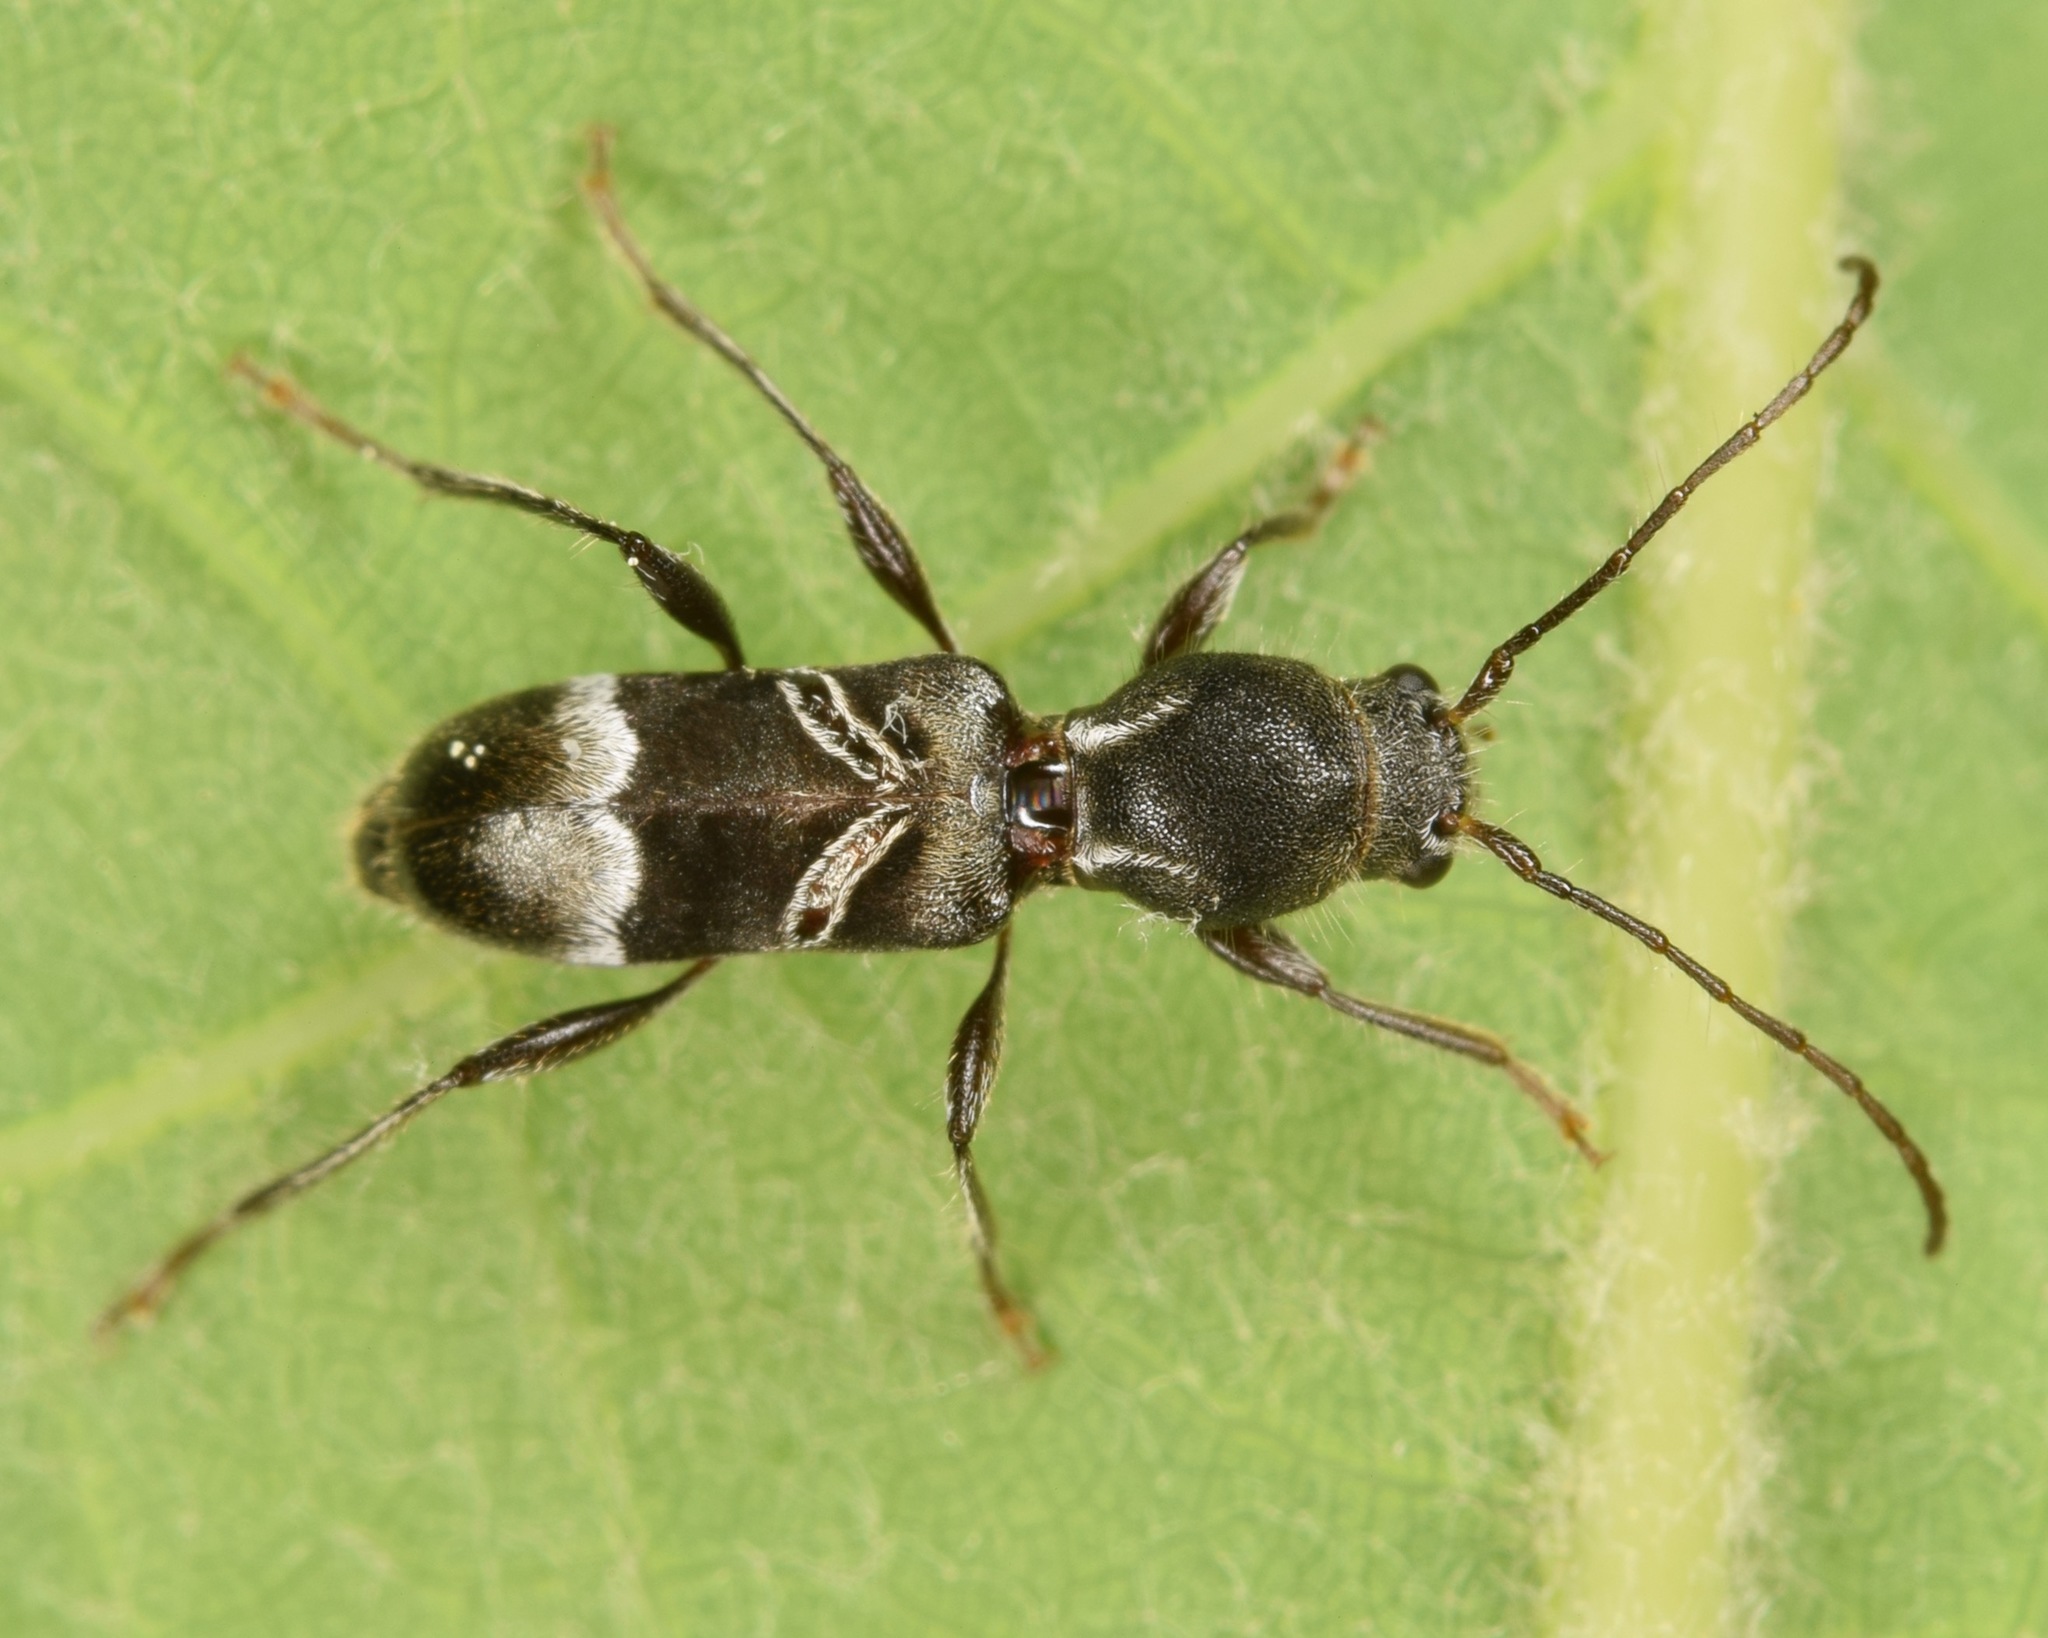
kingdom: Animalia
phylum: Arthropoda
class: Insecta
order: Coleoptera
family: Cerambycidae
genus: Tilloclytus
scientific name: Tilloclytus geminatus
